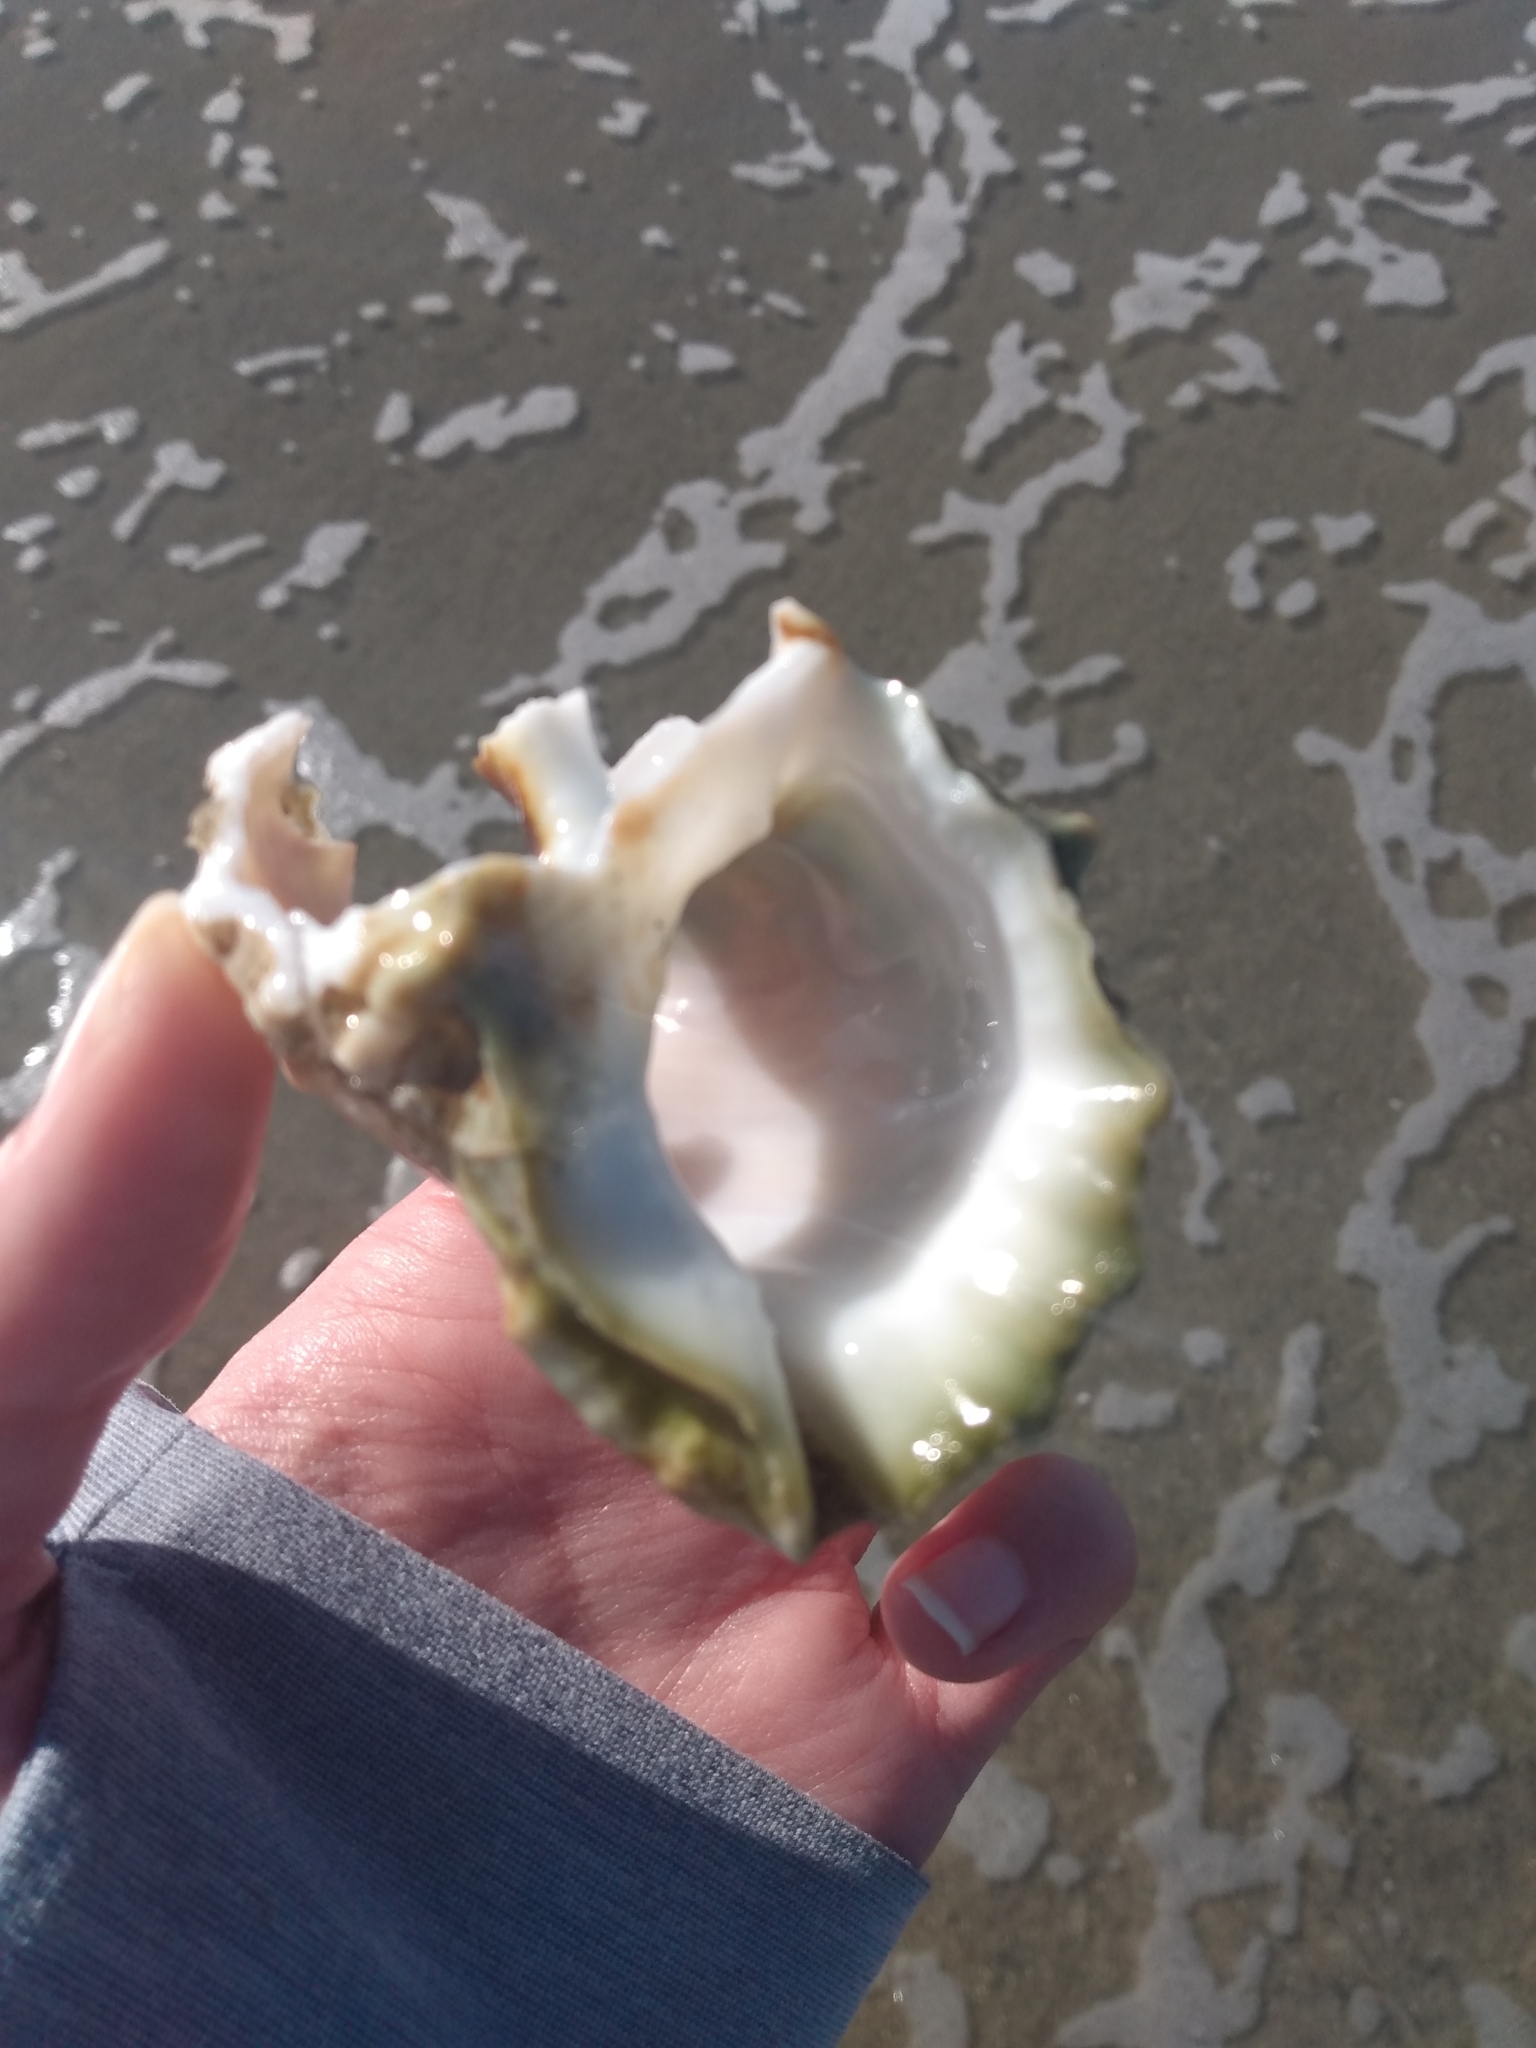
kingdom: Animalia
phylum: Mollusca
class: Gastropoda
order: Littorinimorpha
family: Bursidae
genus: Crossata
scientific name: Crossata californica
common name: California frogsnail
